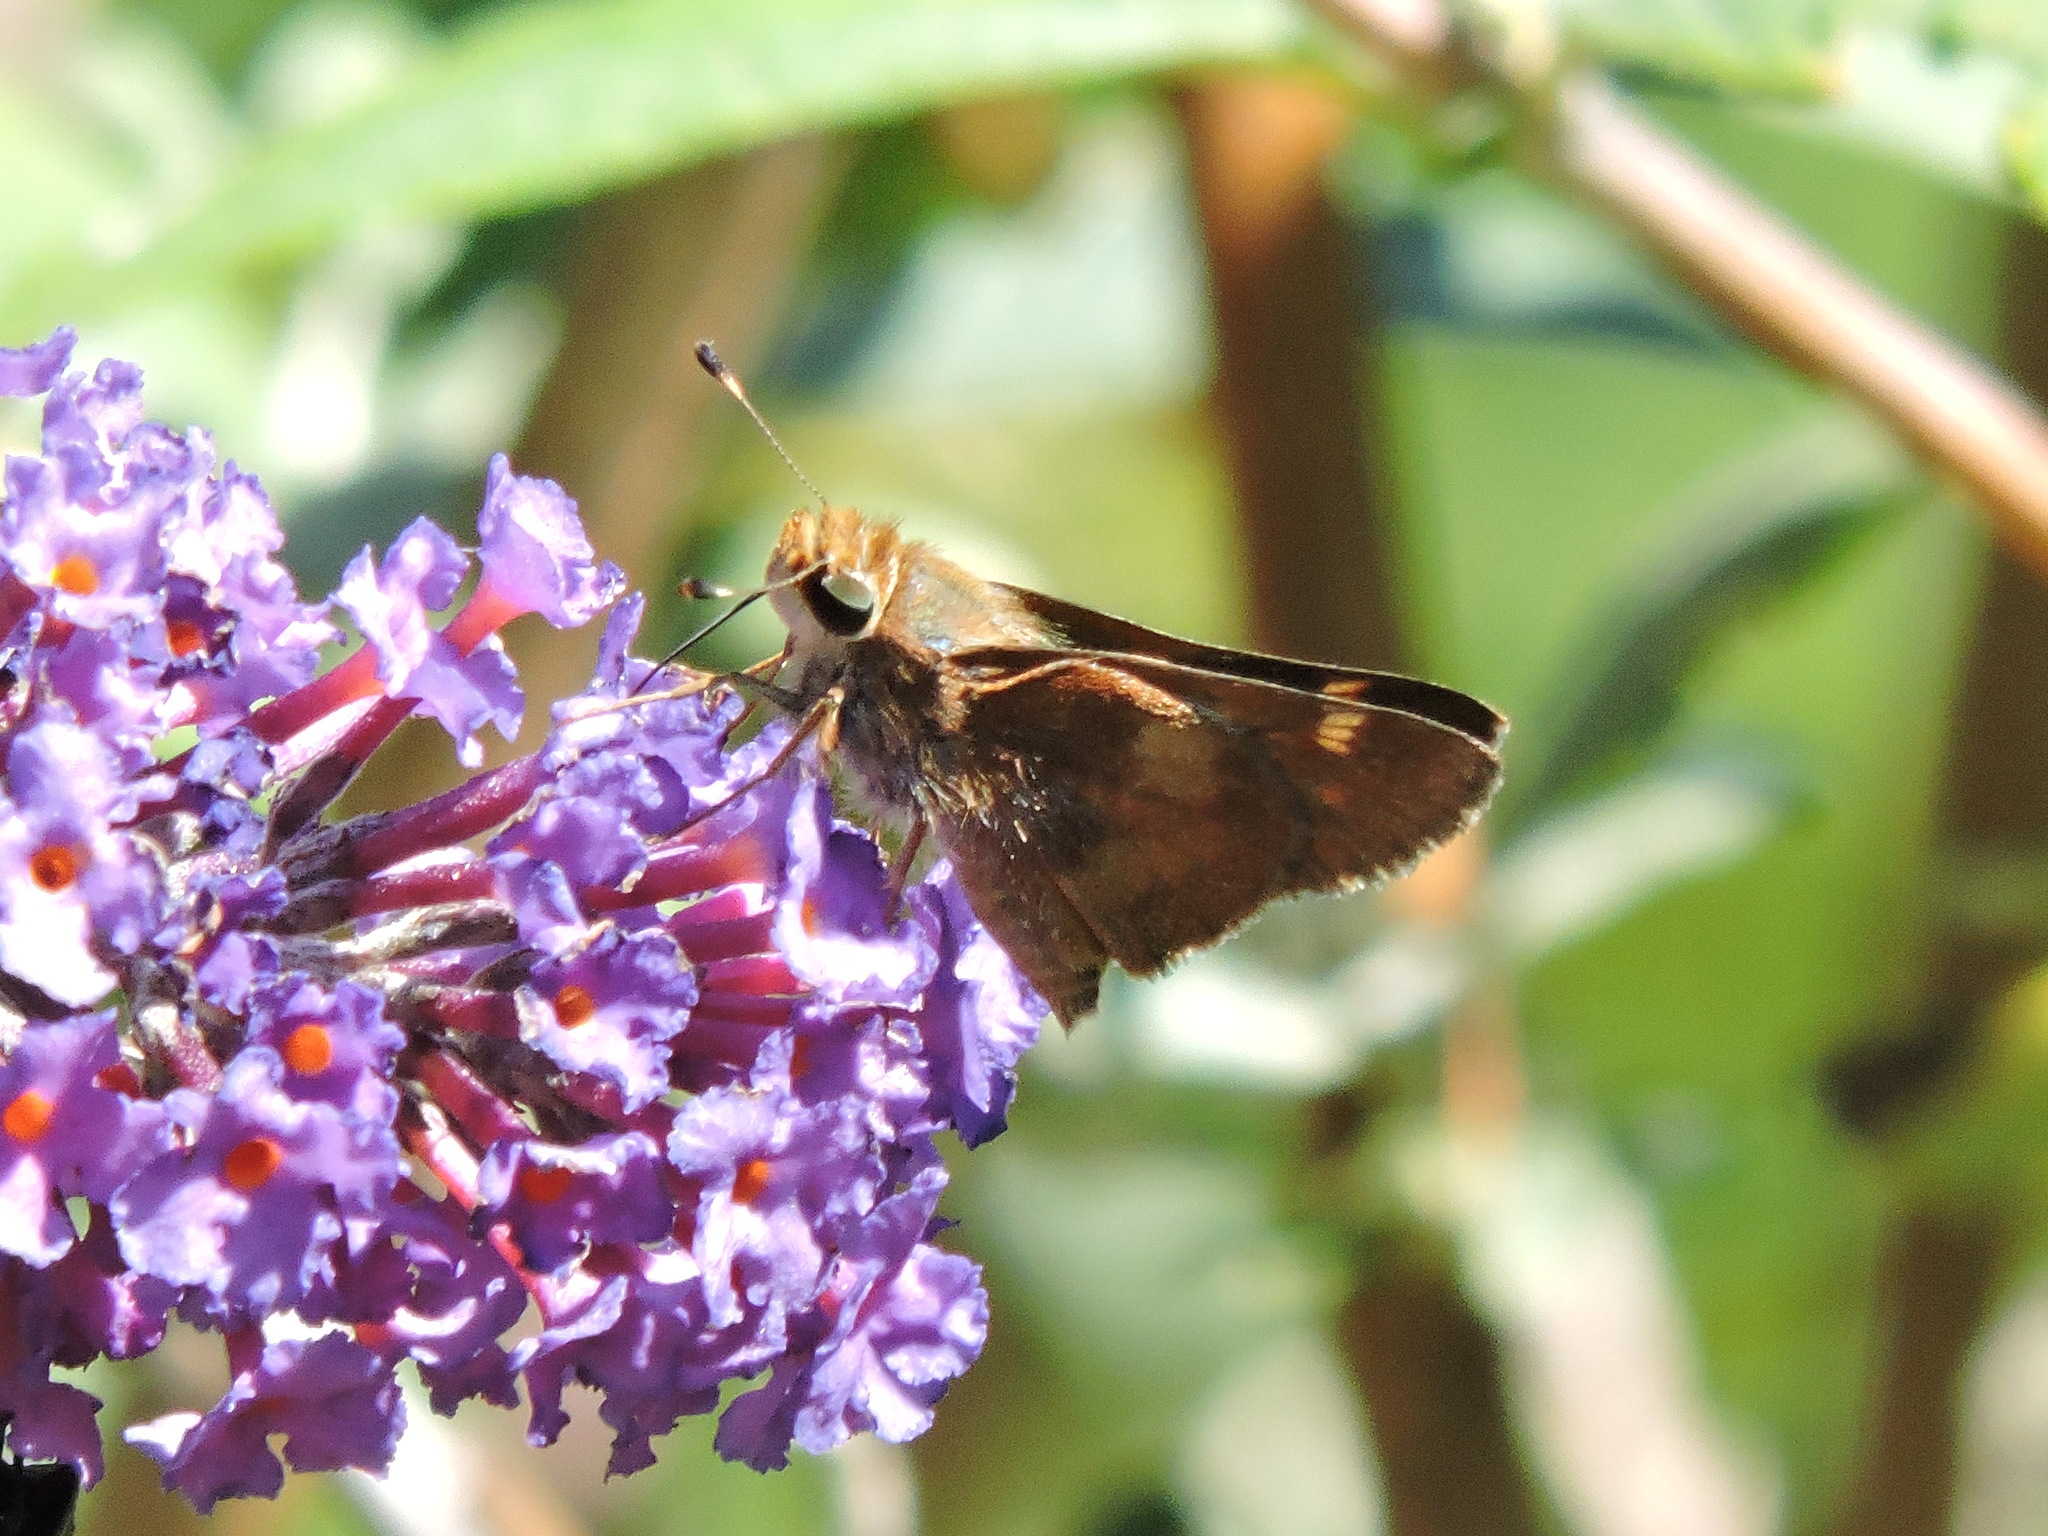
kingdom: Animalia
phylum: Arthropoda
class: Insecta
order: Lepidoptera
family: Hesperiidae
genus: Lon
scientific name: Lon melane
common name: Umber skipper
